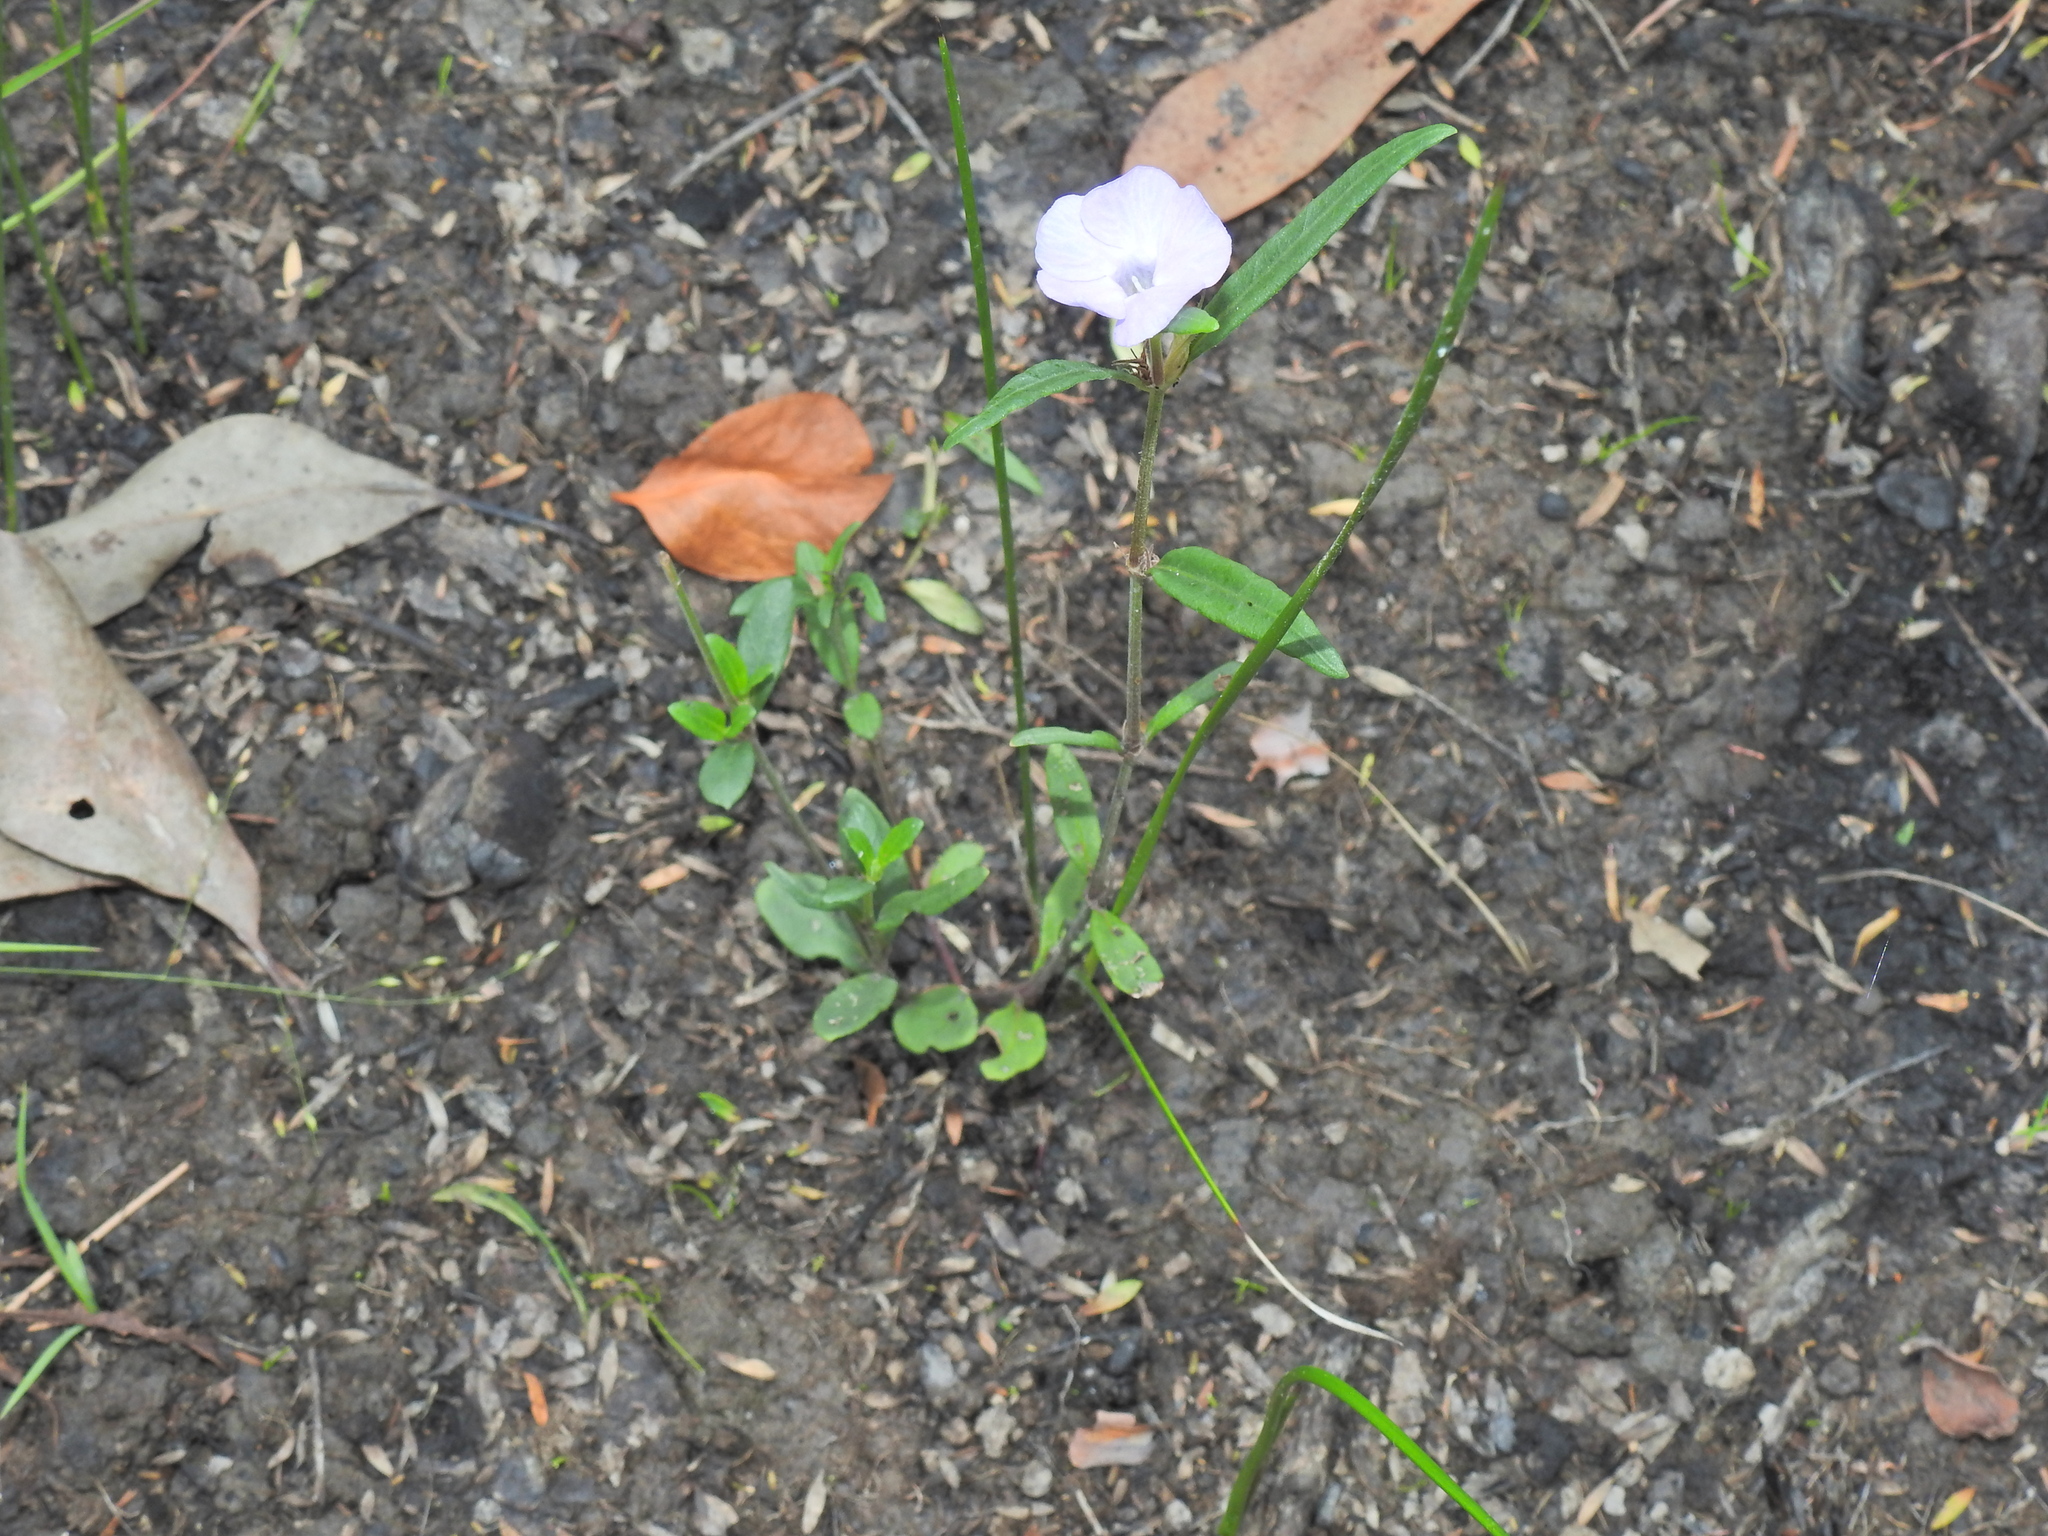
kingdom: Plantae
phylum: Tracheophyta
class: Magnoliopsida
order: Lamiales
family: Acanthaceae
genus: Brunoniella
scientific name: Brunoniella australis
